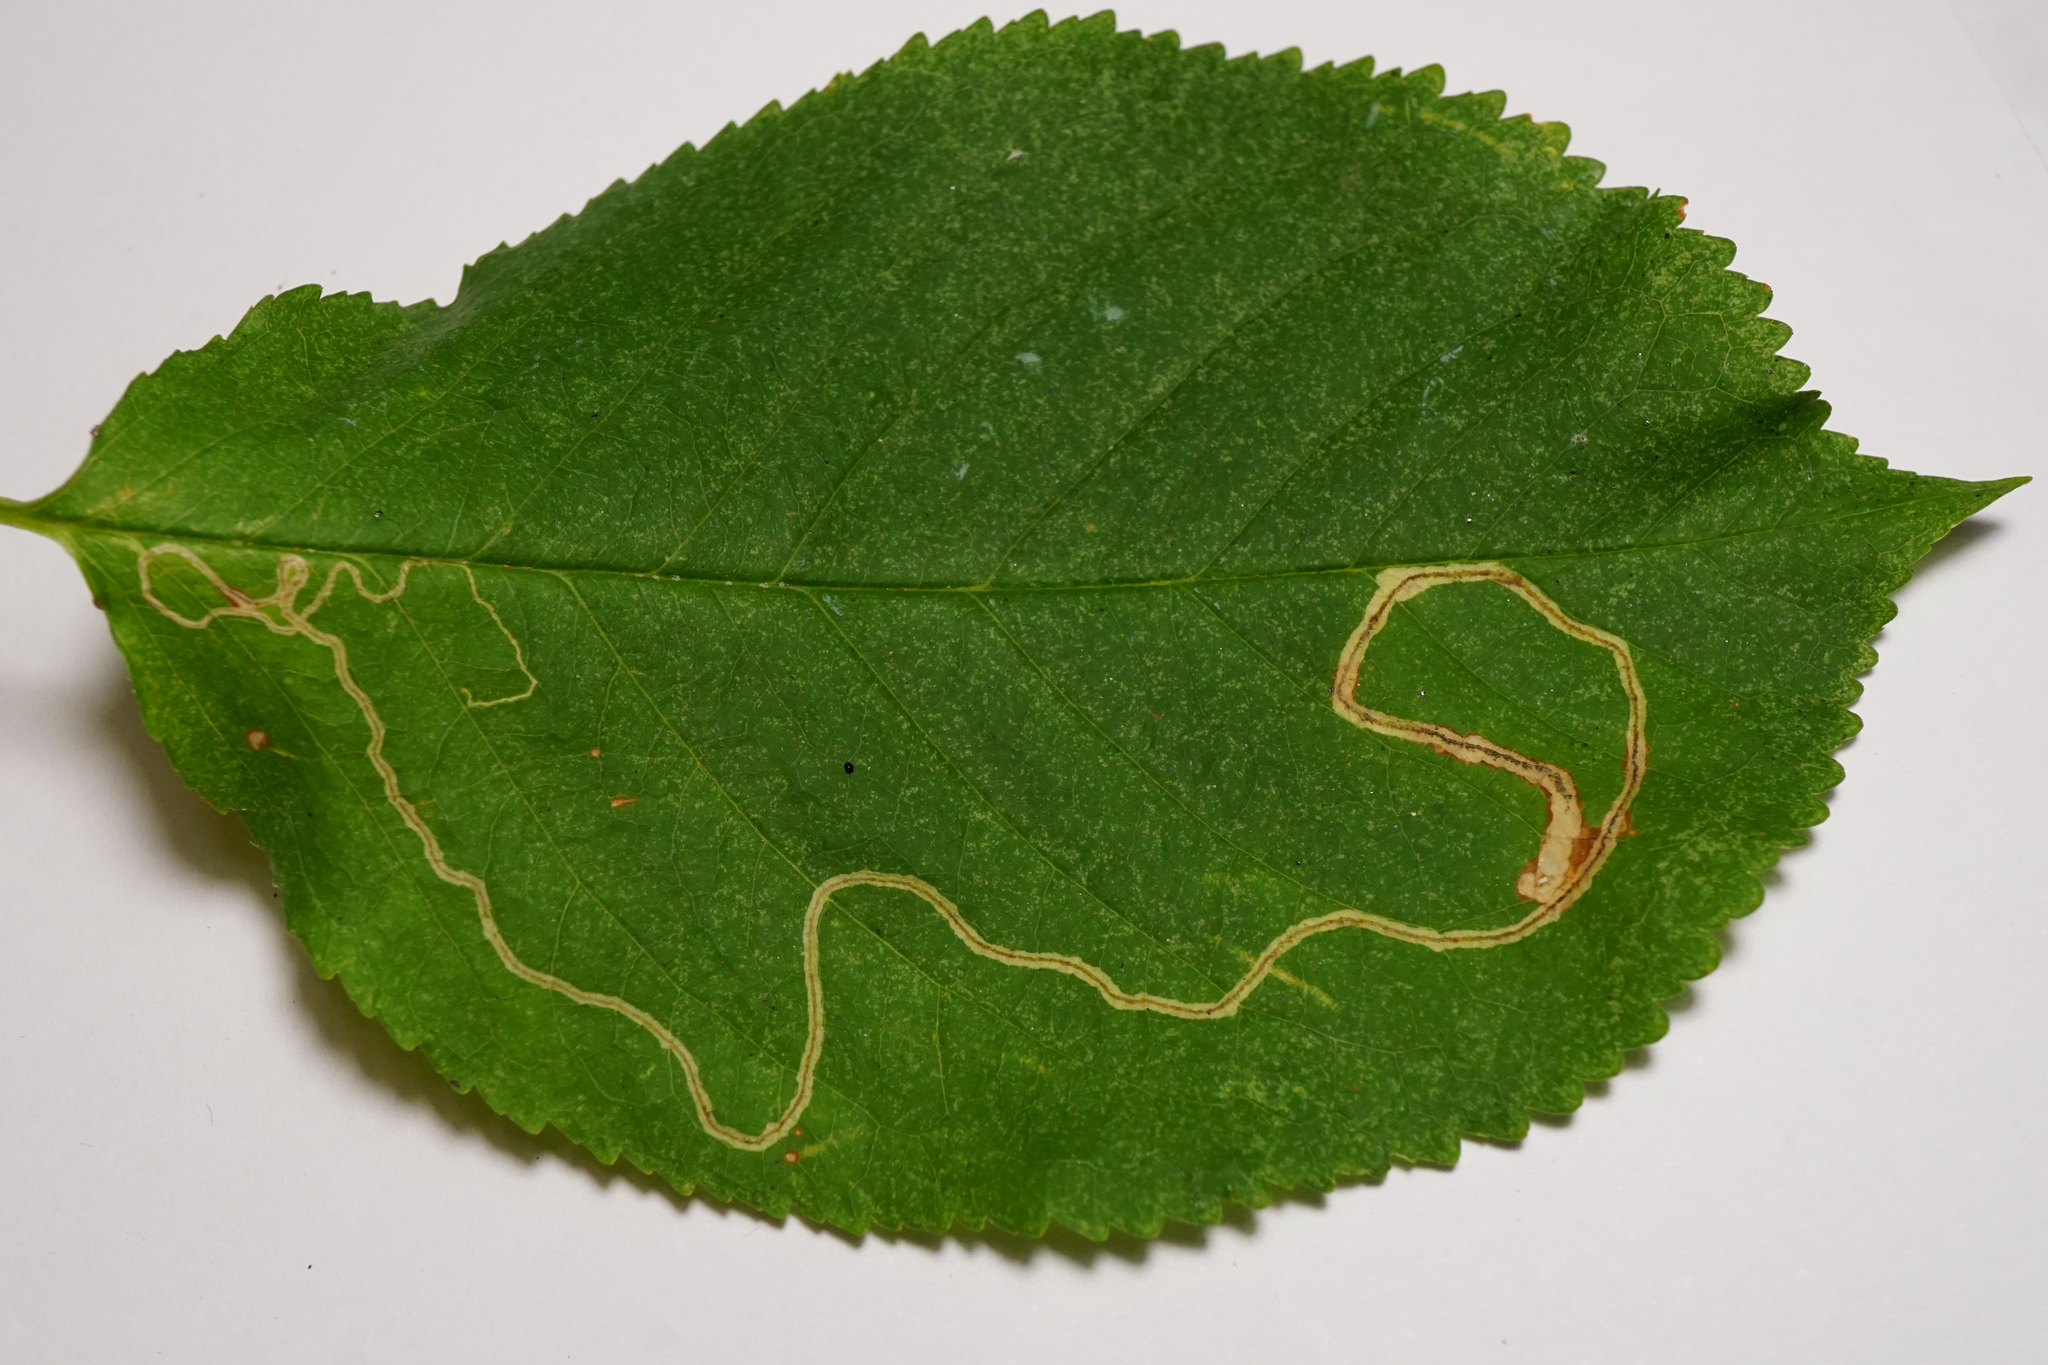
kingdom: Animalia
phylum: Arthropoda
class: Insecta
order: Lepidoptera
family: Lyonetiidae
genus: Lyonetia
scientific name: Lyonetia clerkella
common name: Apple leaf miner
